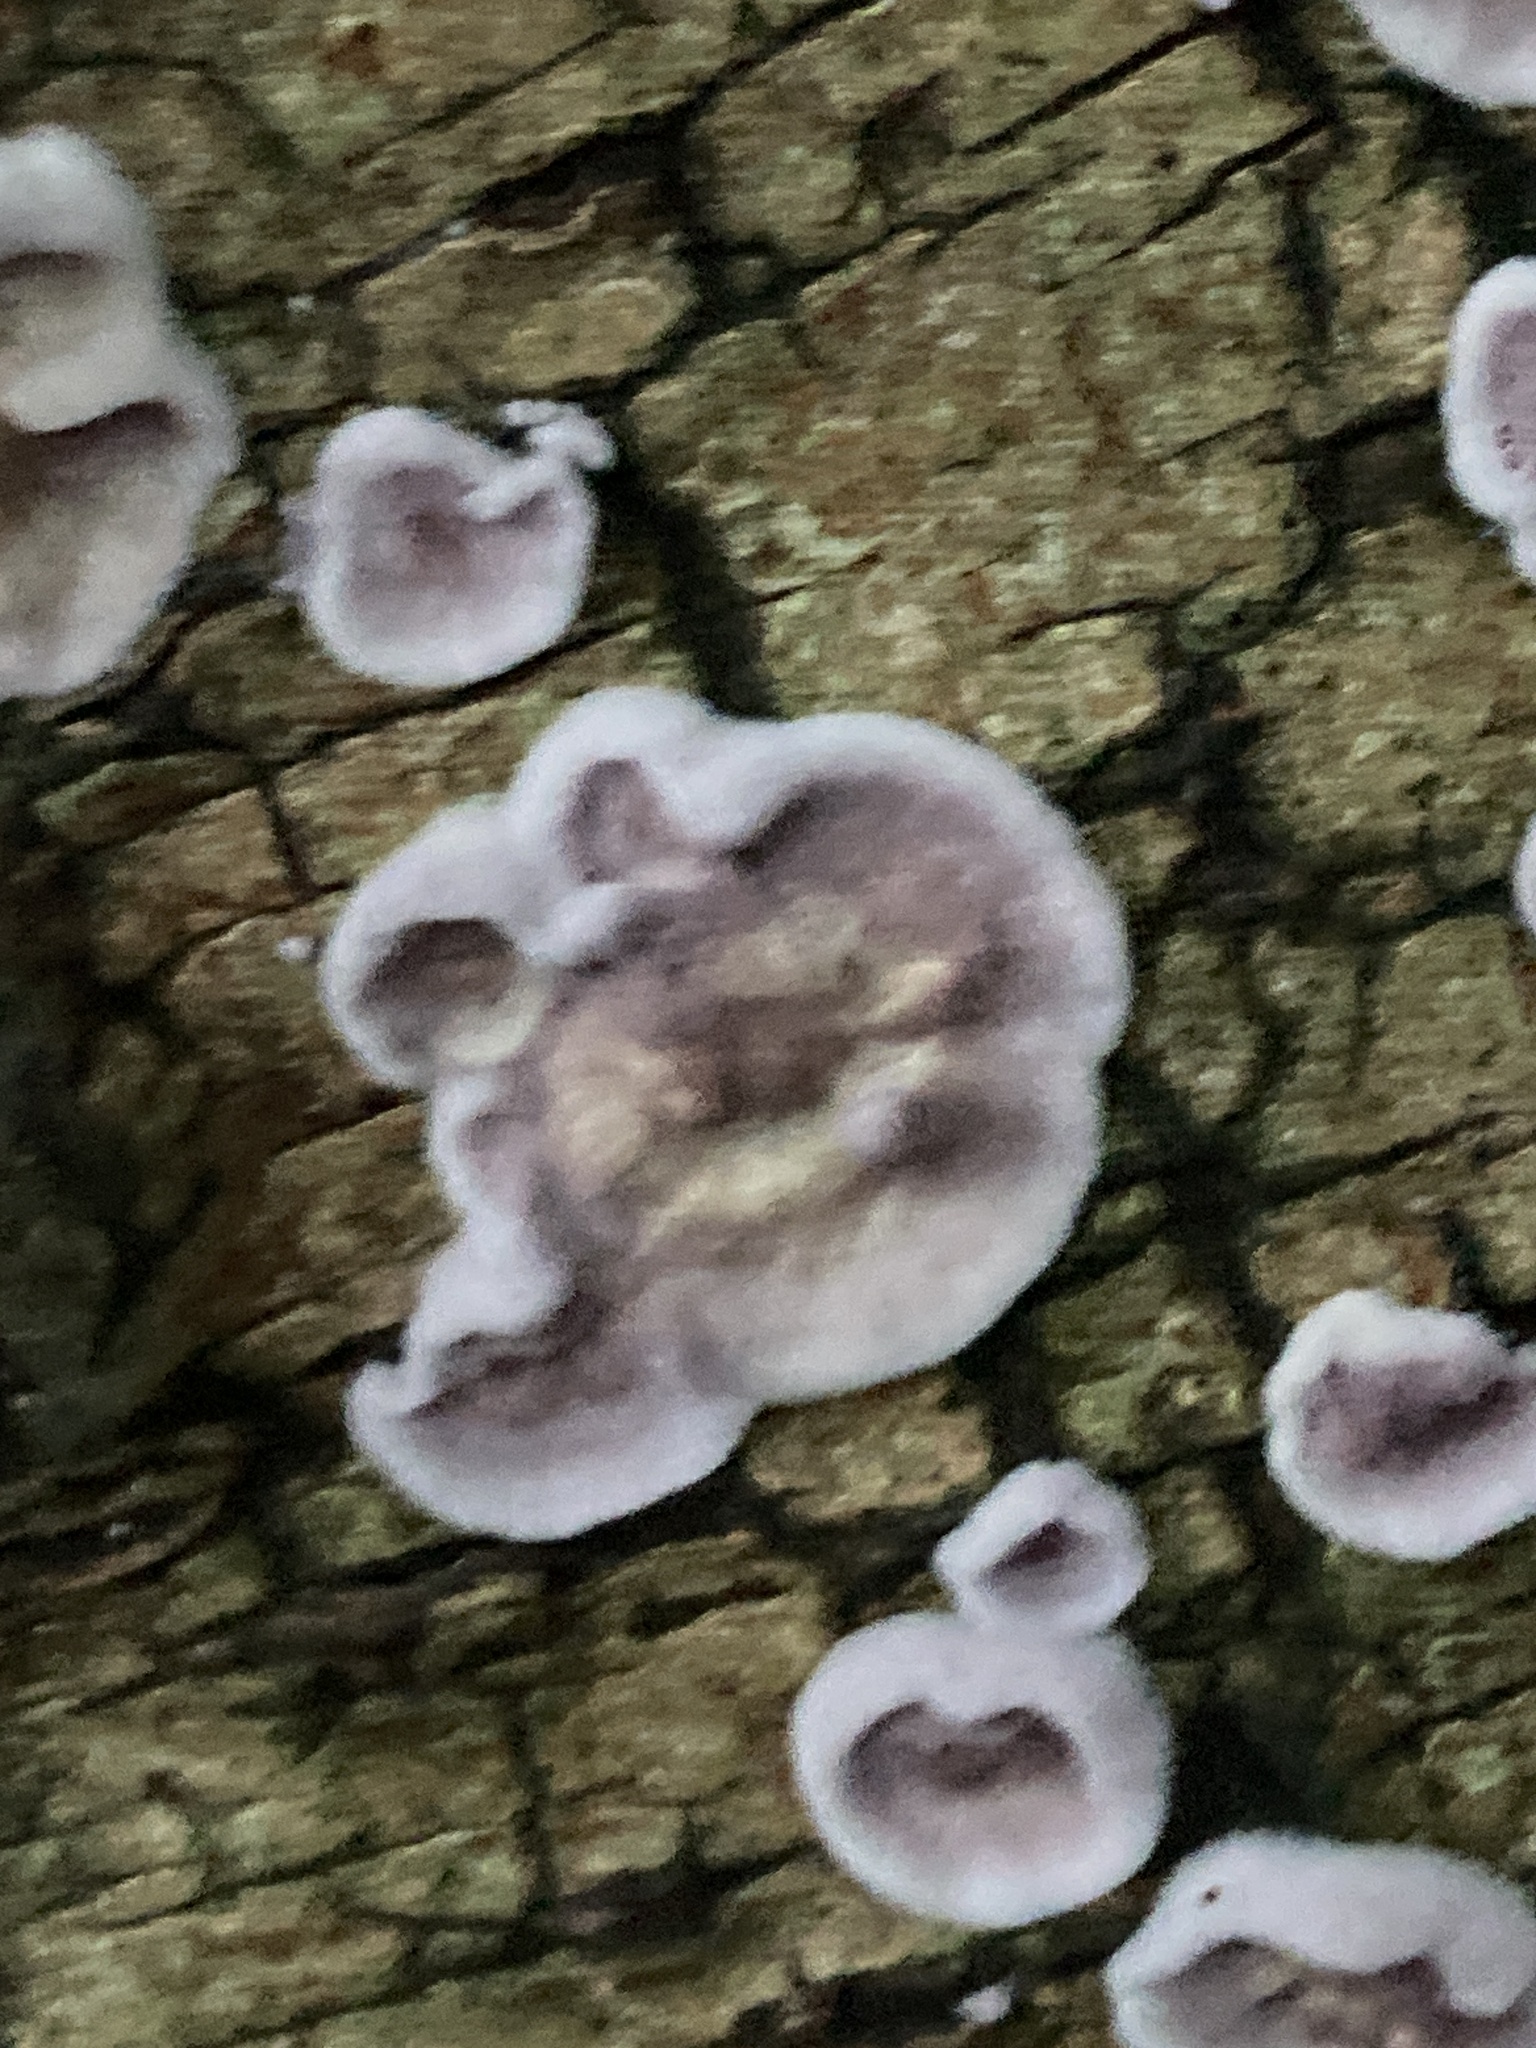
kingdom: Fungi
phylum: Basidiomycota
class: Agaricomycetes
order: Agaricales
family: Cyphellaceae
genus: Chondrostereum
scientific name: Chondrostereum purpureum
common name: Silver leaf disease
